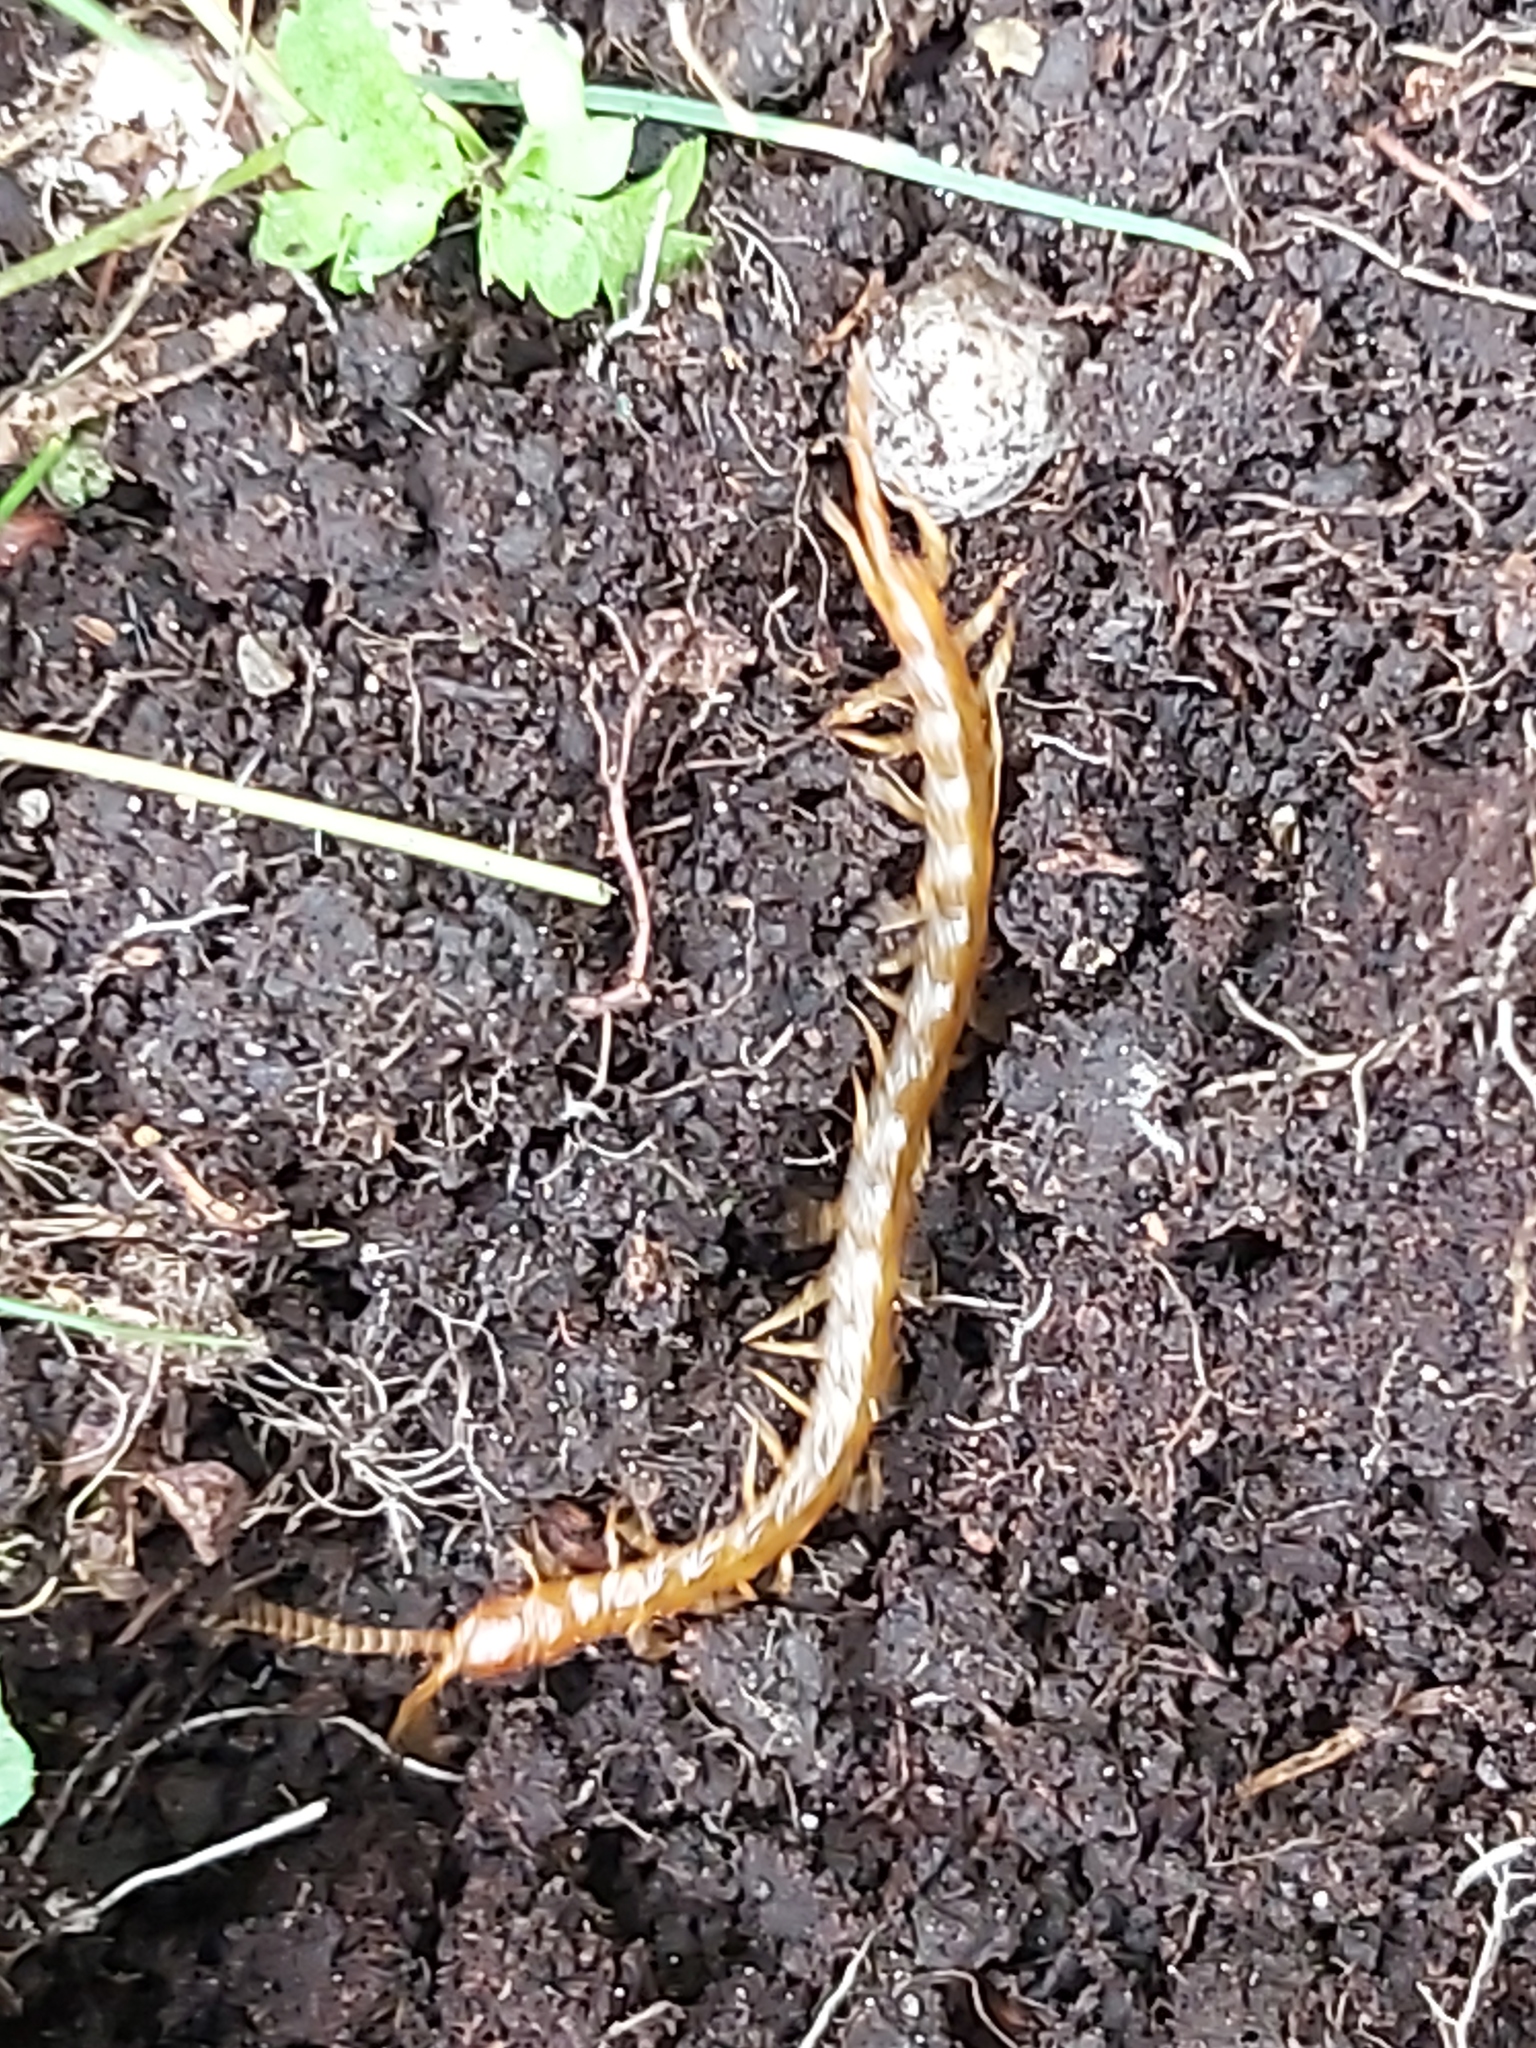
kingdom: Animalia
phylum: Arthropoda
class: Chilopoda
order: Scolopendromorpha
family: Cryptopidae
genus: Cryptops
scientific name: Cryptops
